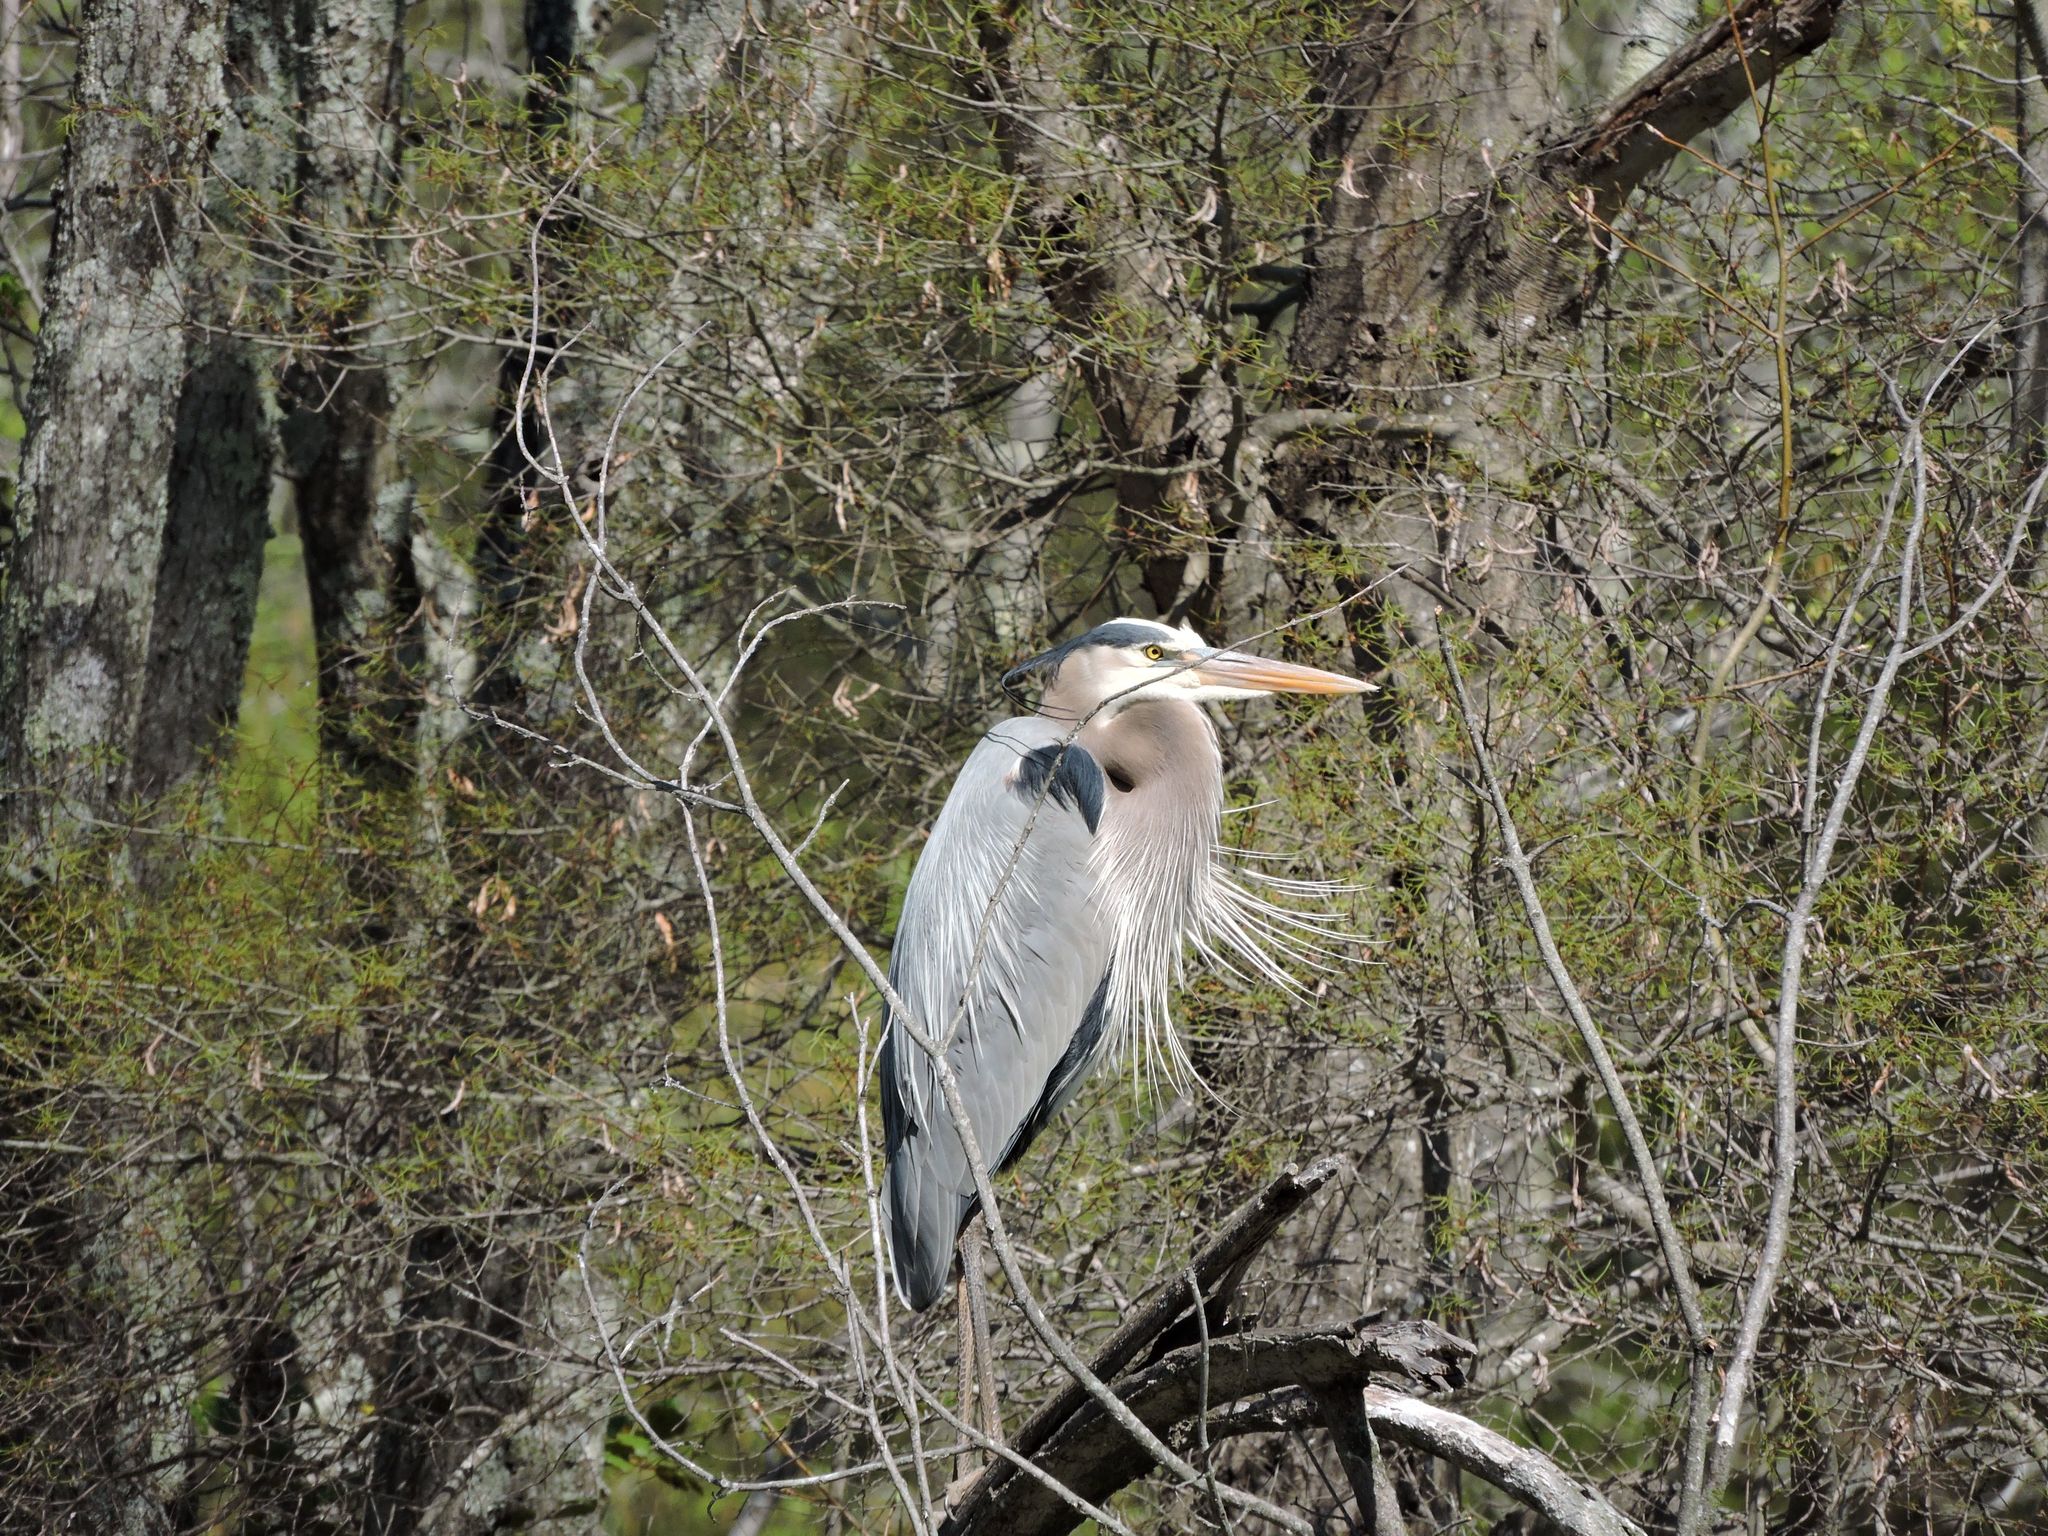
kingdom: Animalia
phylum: Chordata
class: Aves
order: Pelecaniformes
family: Ardeidae
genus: Ardea
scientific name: Ardea herodias
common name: Great blue heron
